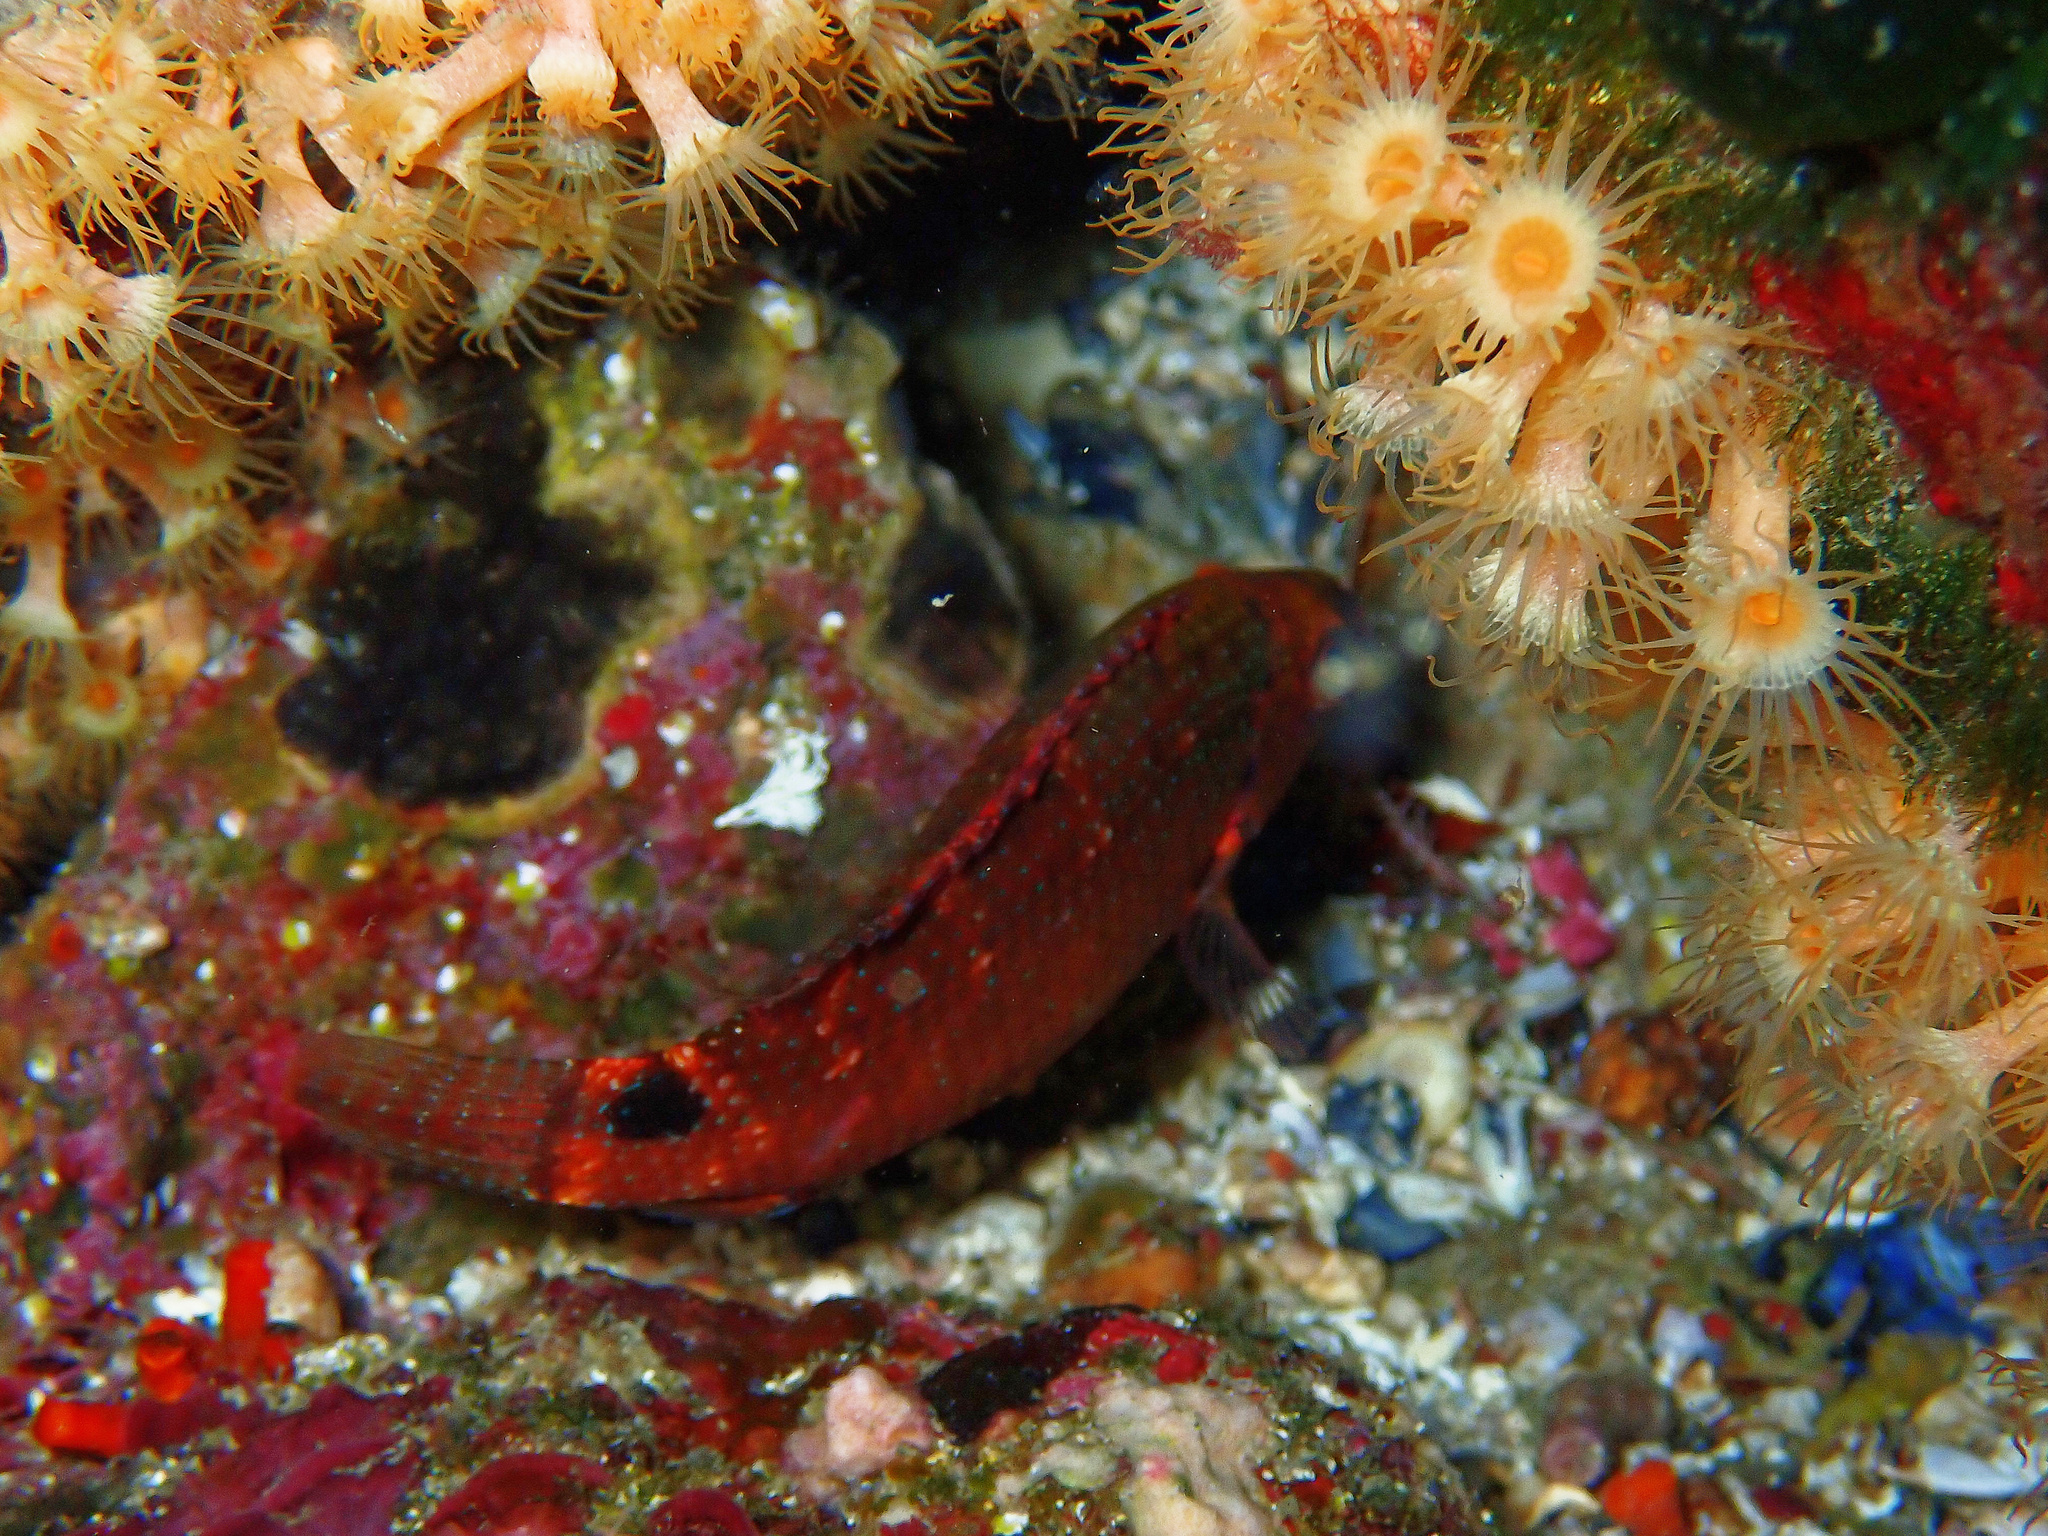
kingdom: Animalia
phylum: Chordata
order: Perciformes
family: Labridae
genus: Symphodus
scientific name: Symphodus mediterraneus
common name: Axillary wrasse
